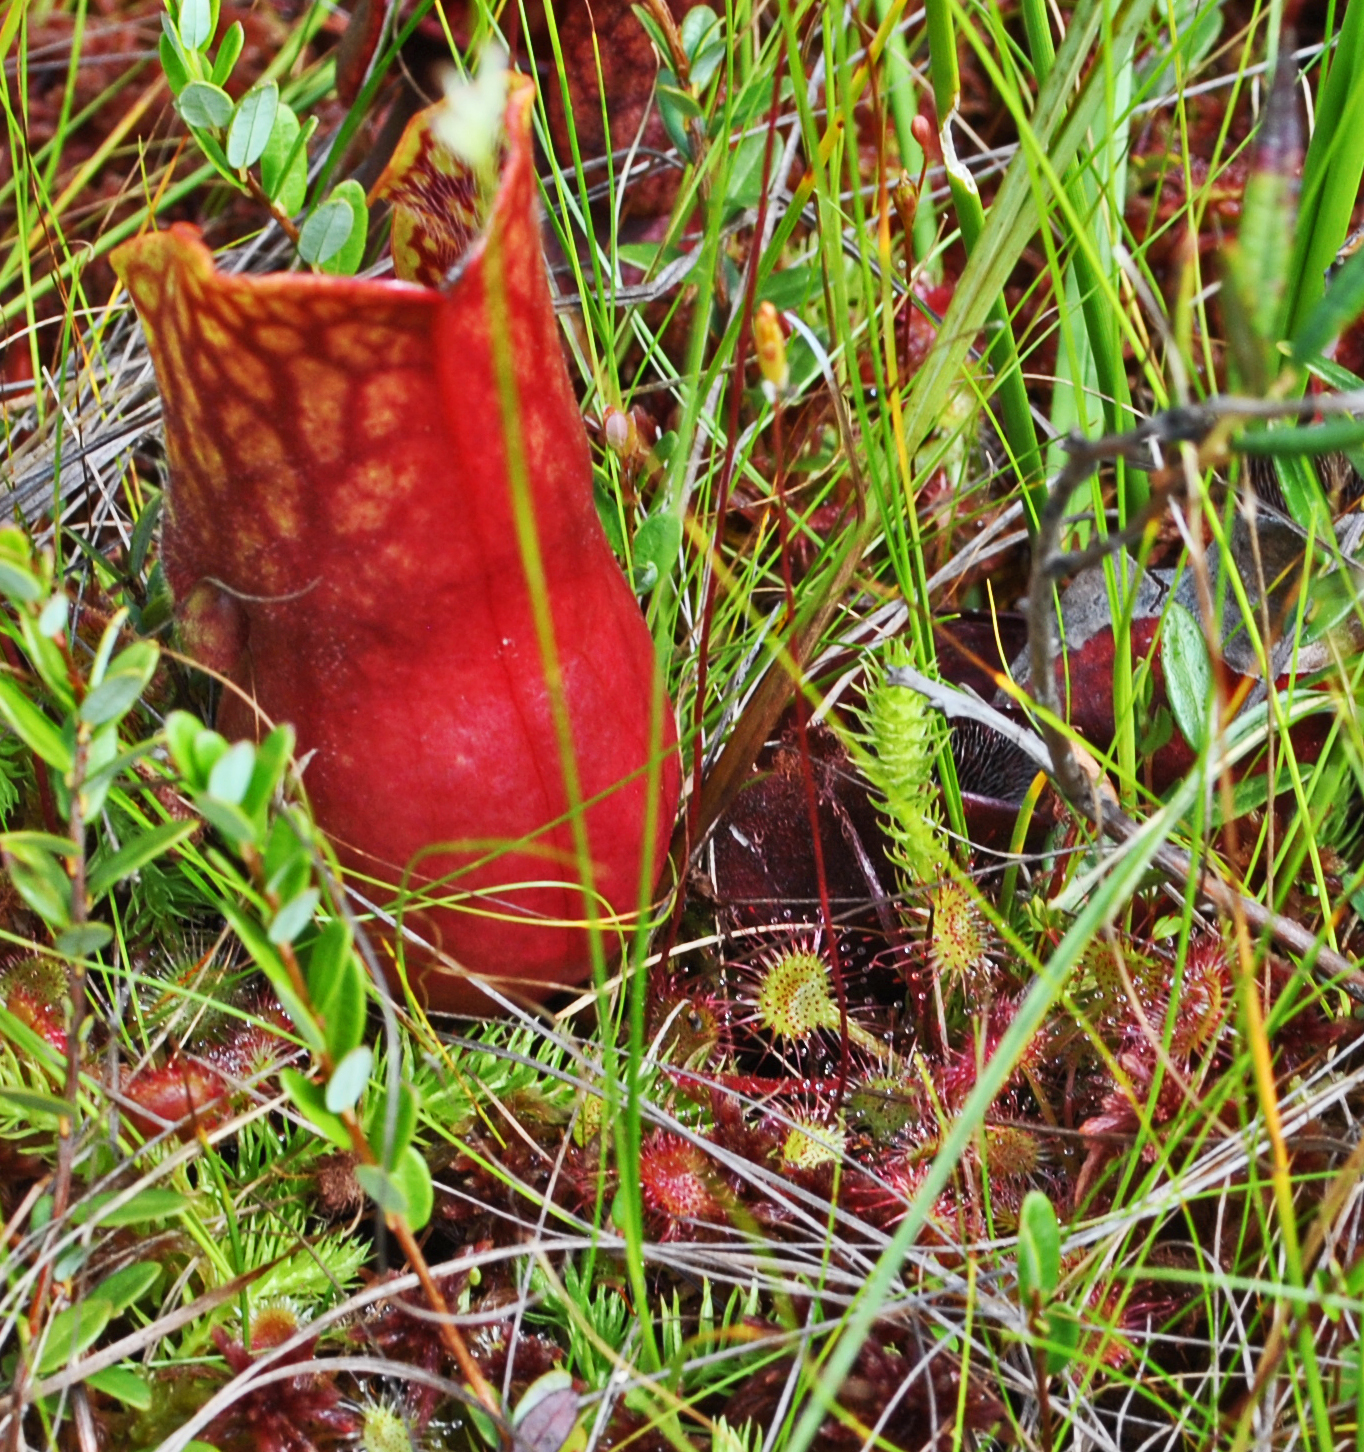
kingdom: Plantae
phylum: Tracheophyta
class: Magnoliopsida
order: Ericales
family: Sarraceniaceae
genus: Sarracenia
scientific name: Sarracenia purpurea
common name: Pitcherplant
